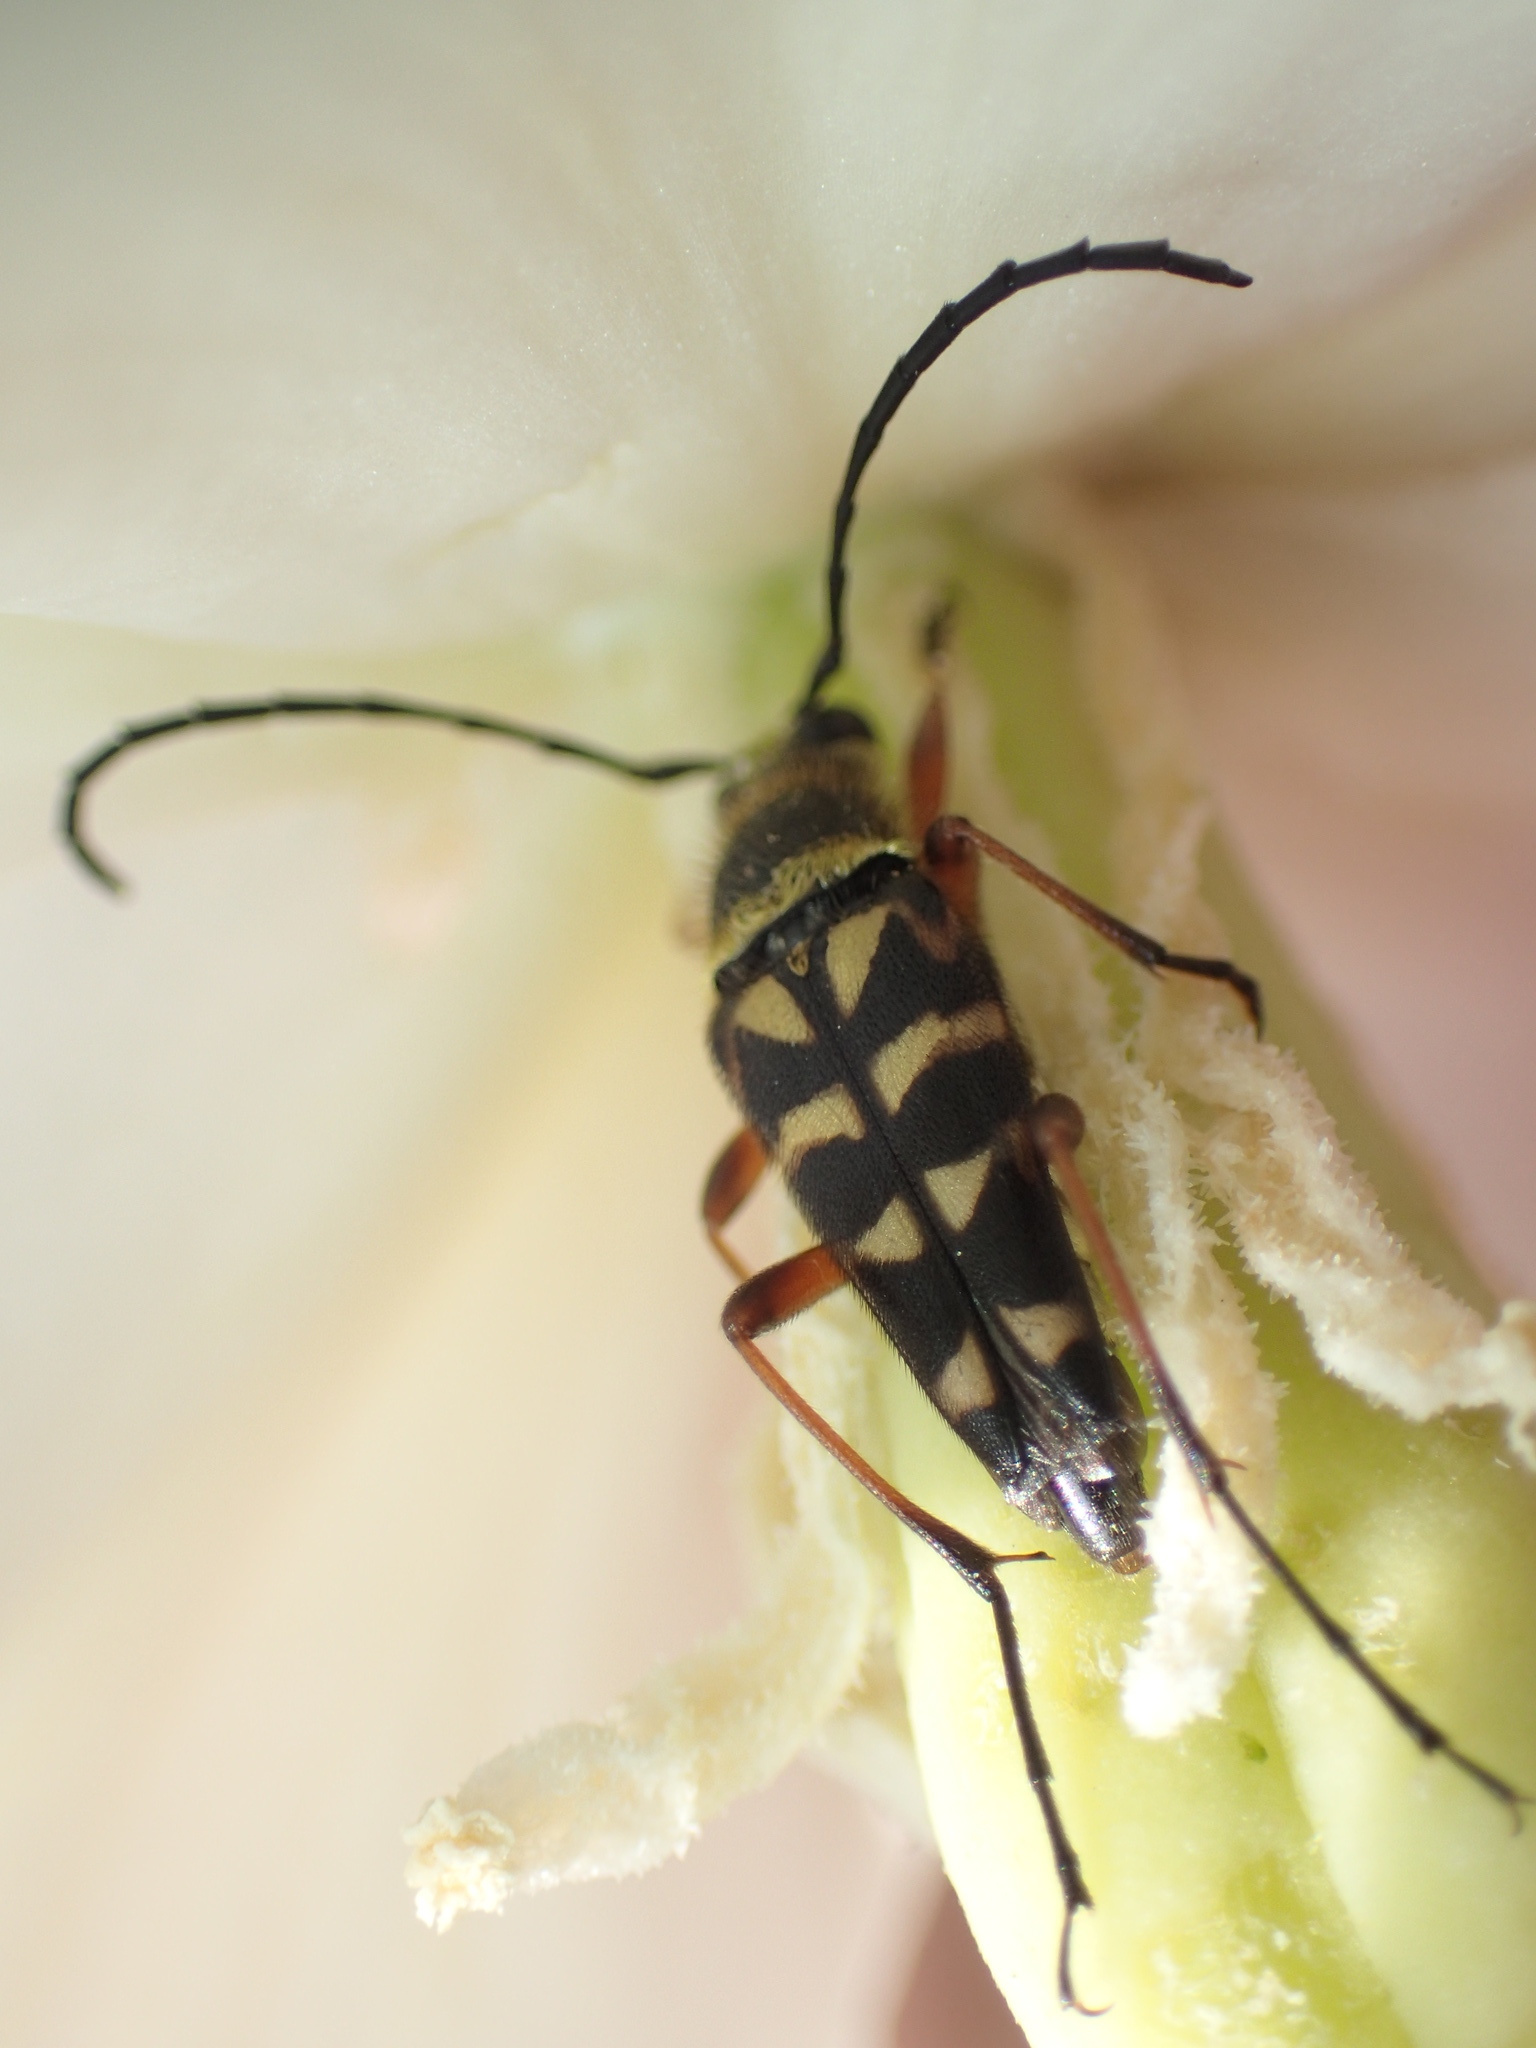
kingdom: Animalia
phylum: Arthropoda
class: Insecta
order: Coleoptera
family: Cerambycidae
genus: Typocerus
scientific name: Typocerus zebra
